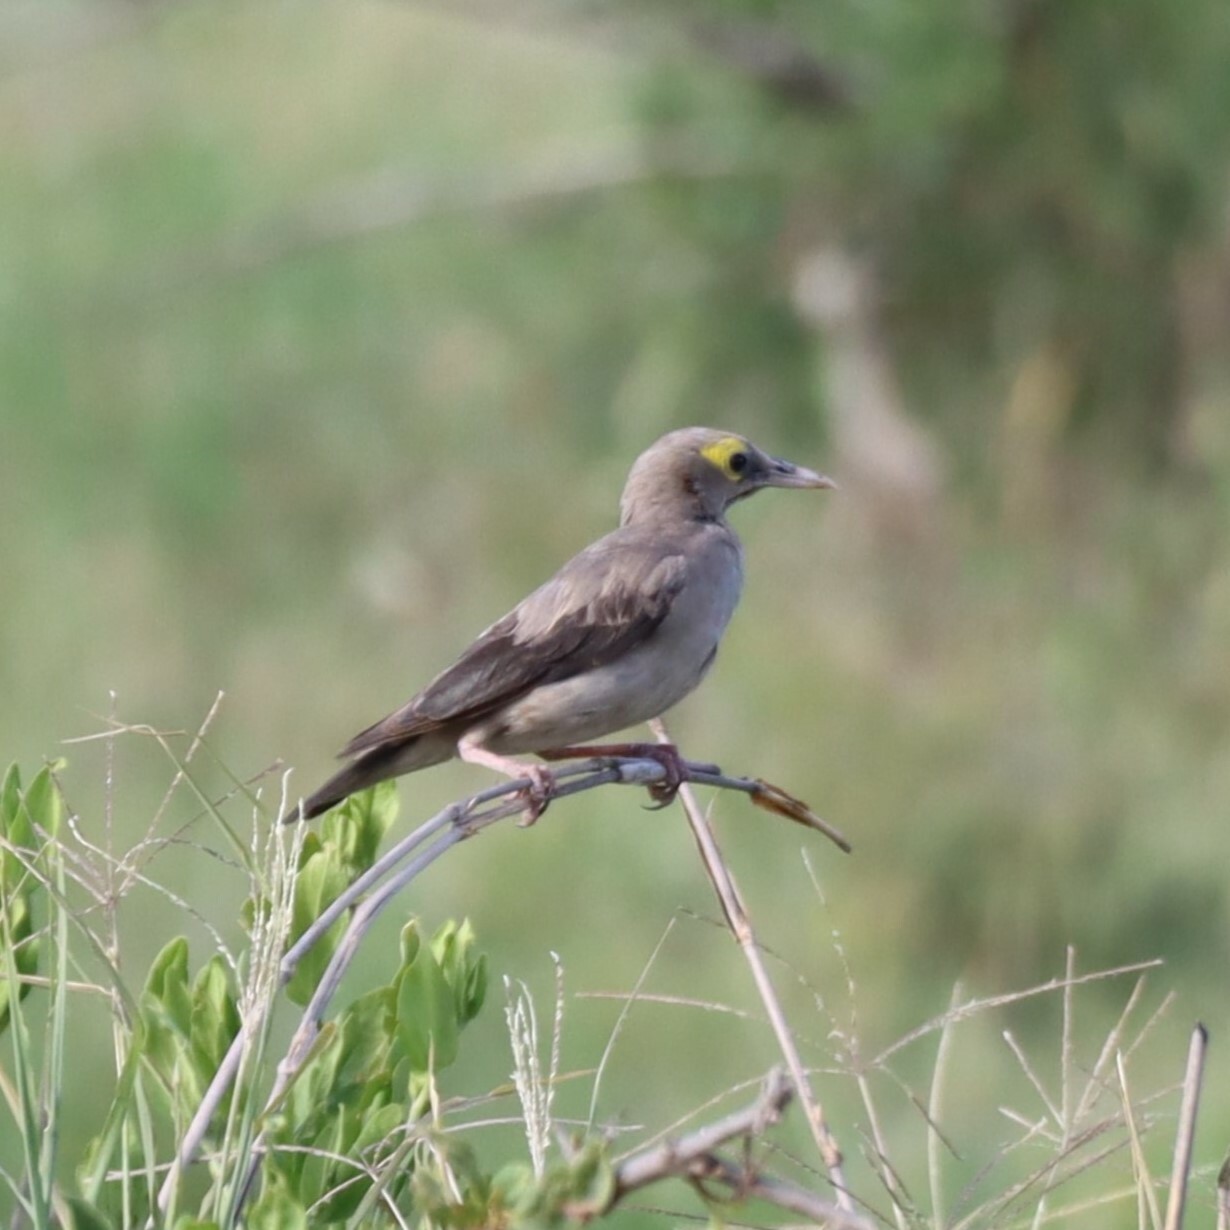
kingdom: Animalia
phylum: Chordata
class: Aves
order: Passeriformes
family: Sturnidae
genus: Creatophora
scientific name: Creatophora cinerea
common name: Wattled starling
